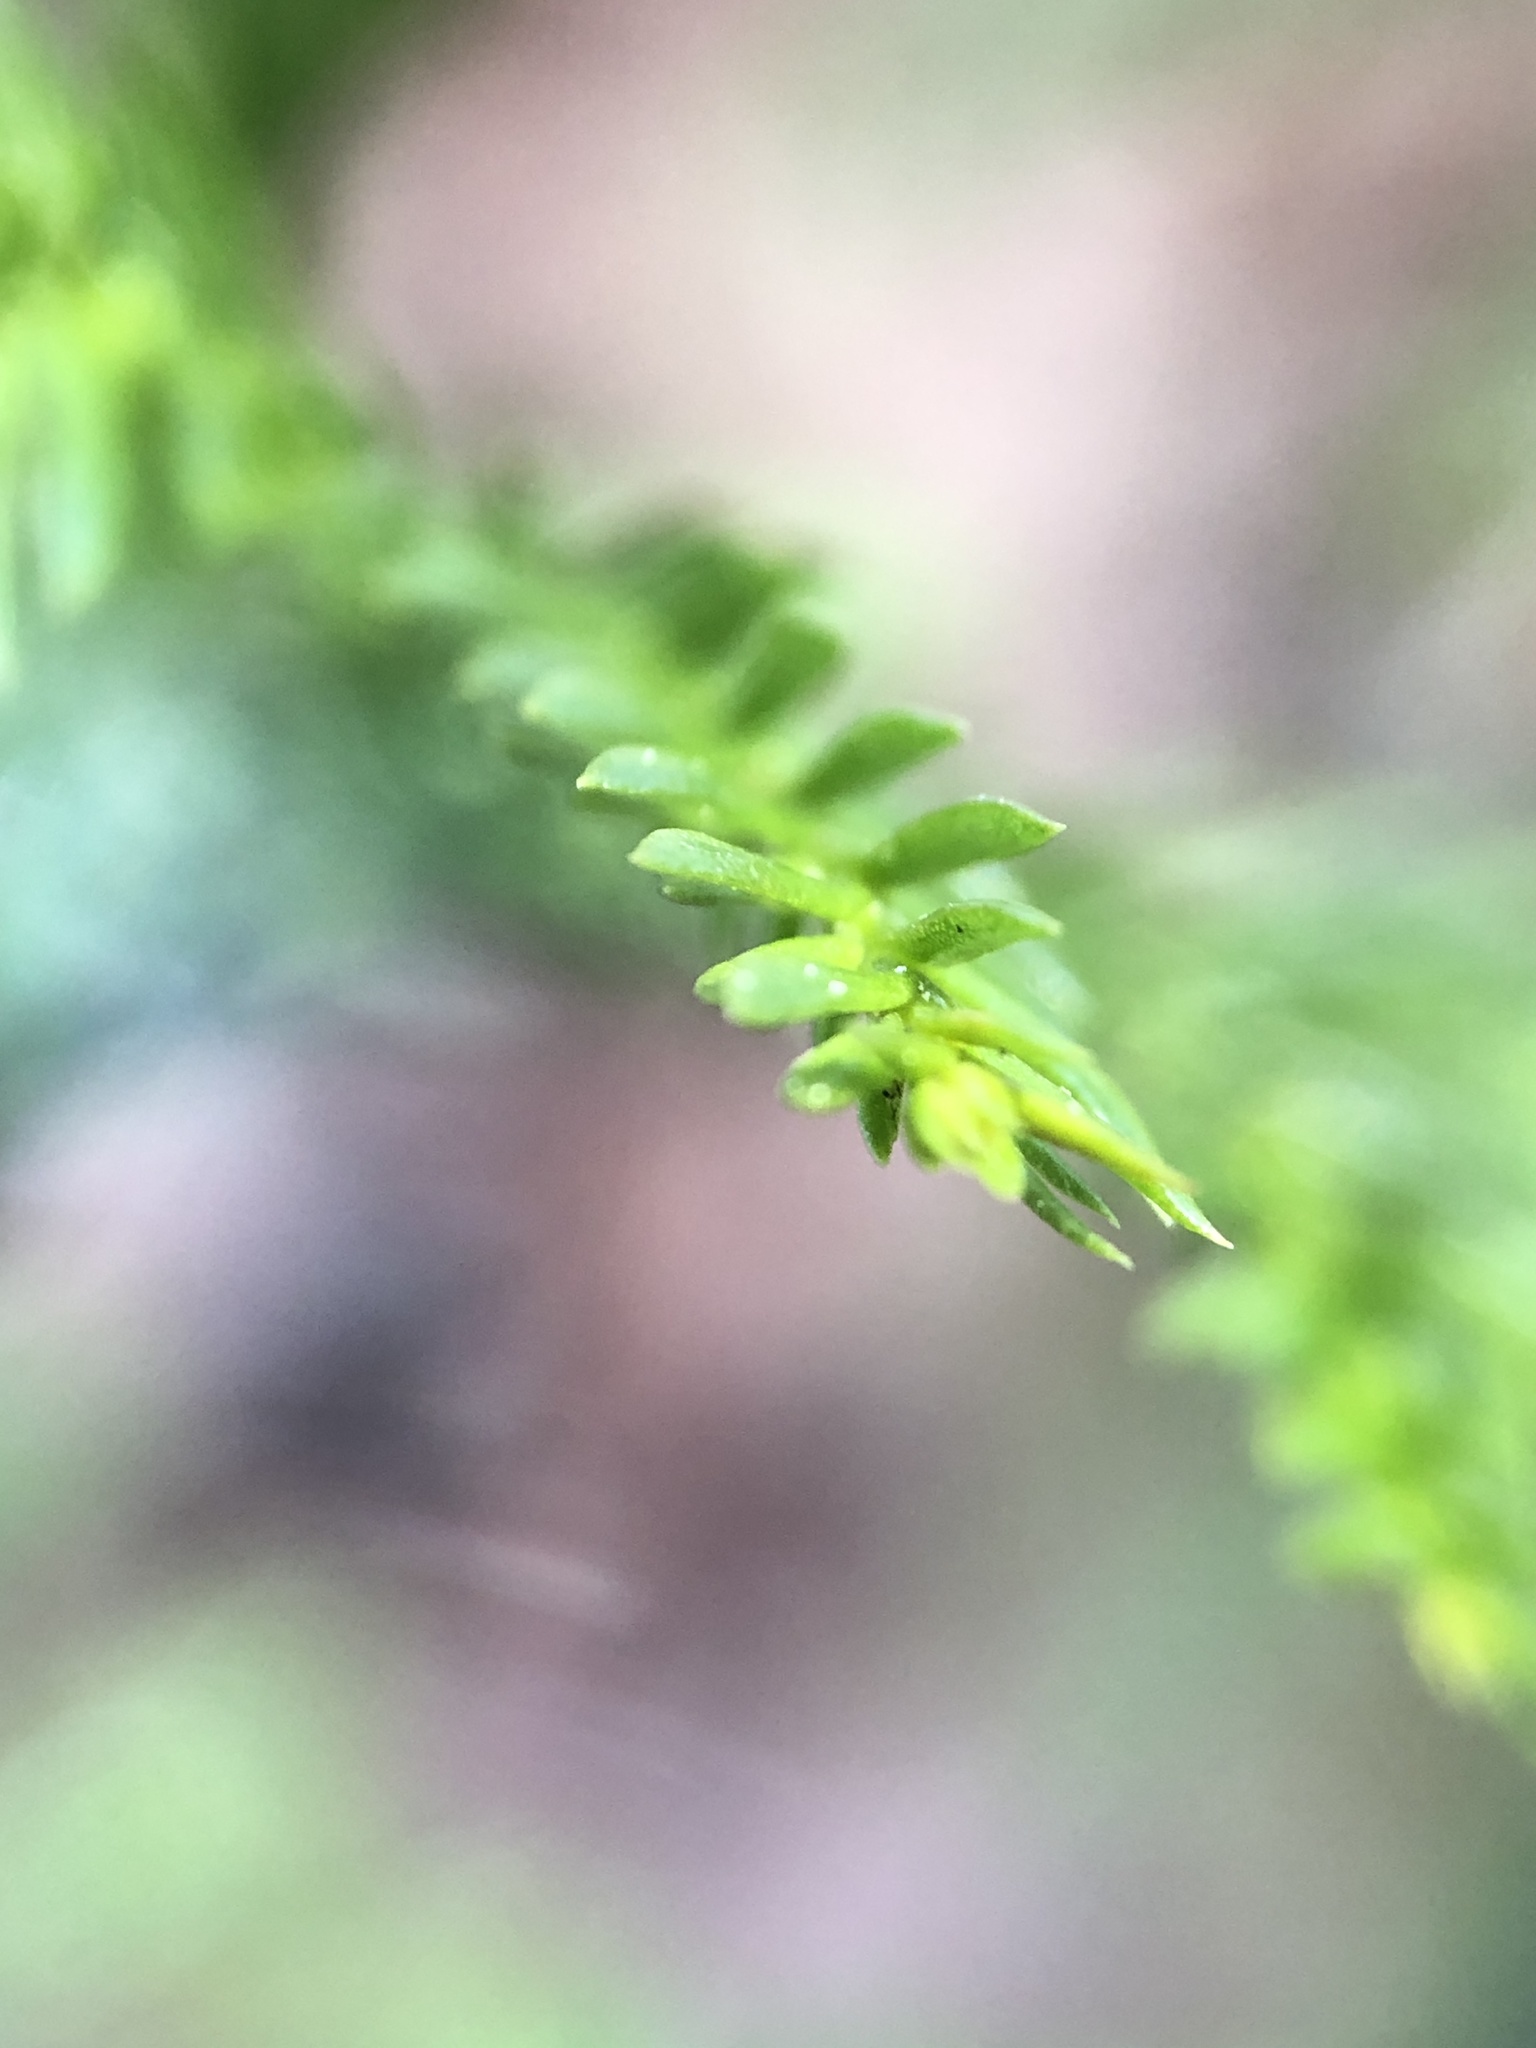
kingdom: Plantae
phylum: Tracheophyta
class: Lycopodiopsida
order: Lycopodiales
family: Lycopodiaceae
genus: Dendrolycopodium
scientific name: Dendrolycopodium obscurum
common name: Common ground-pine
